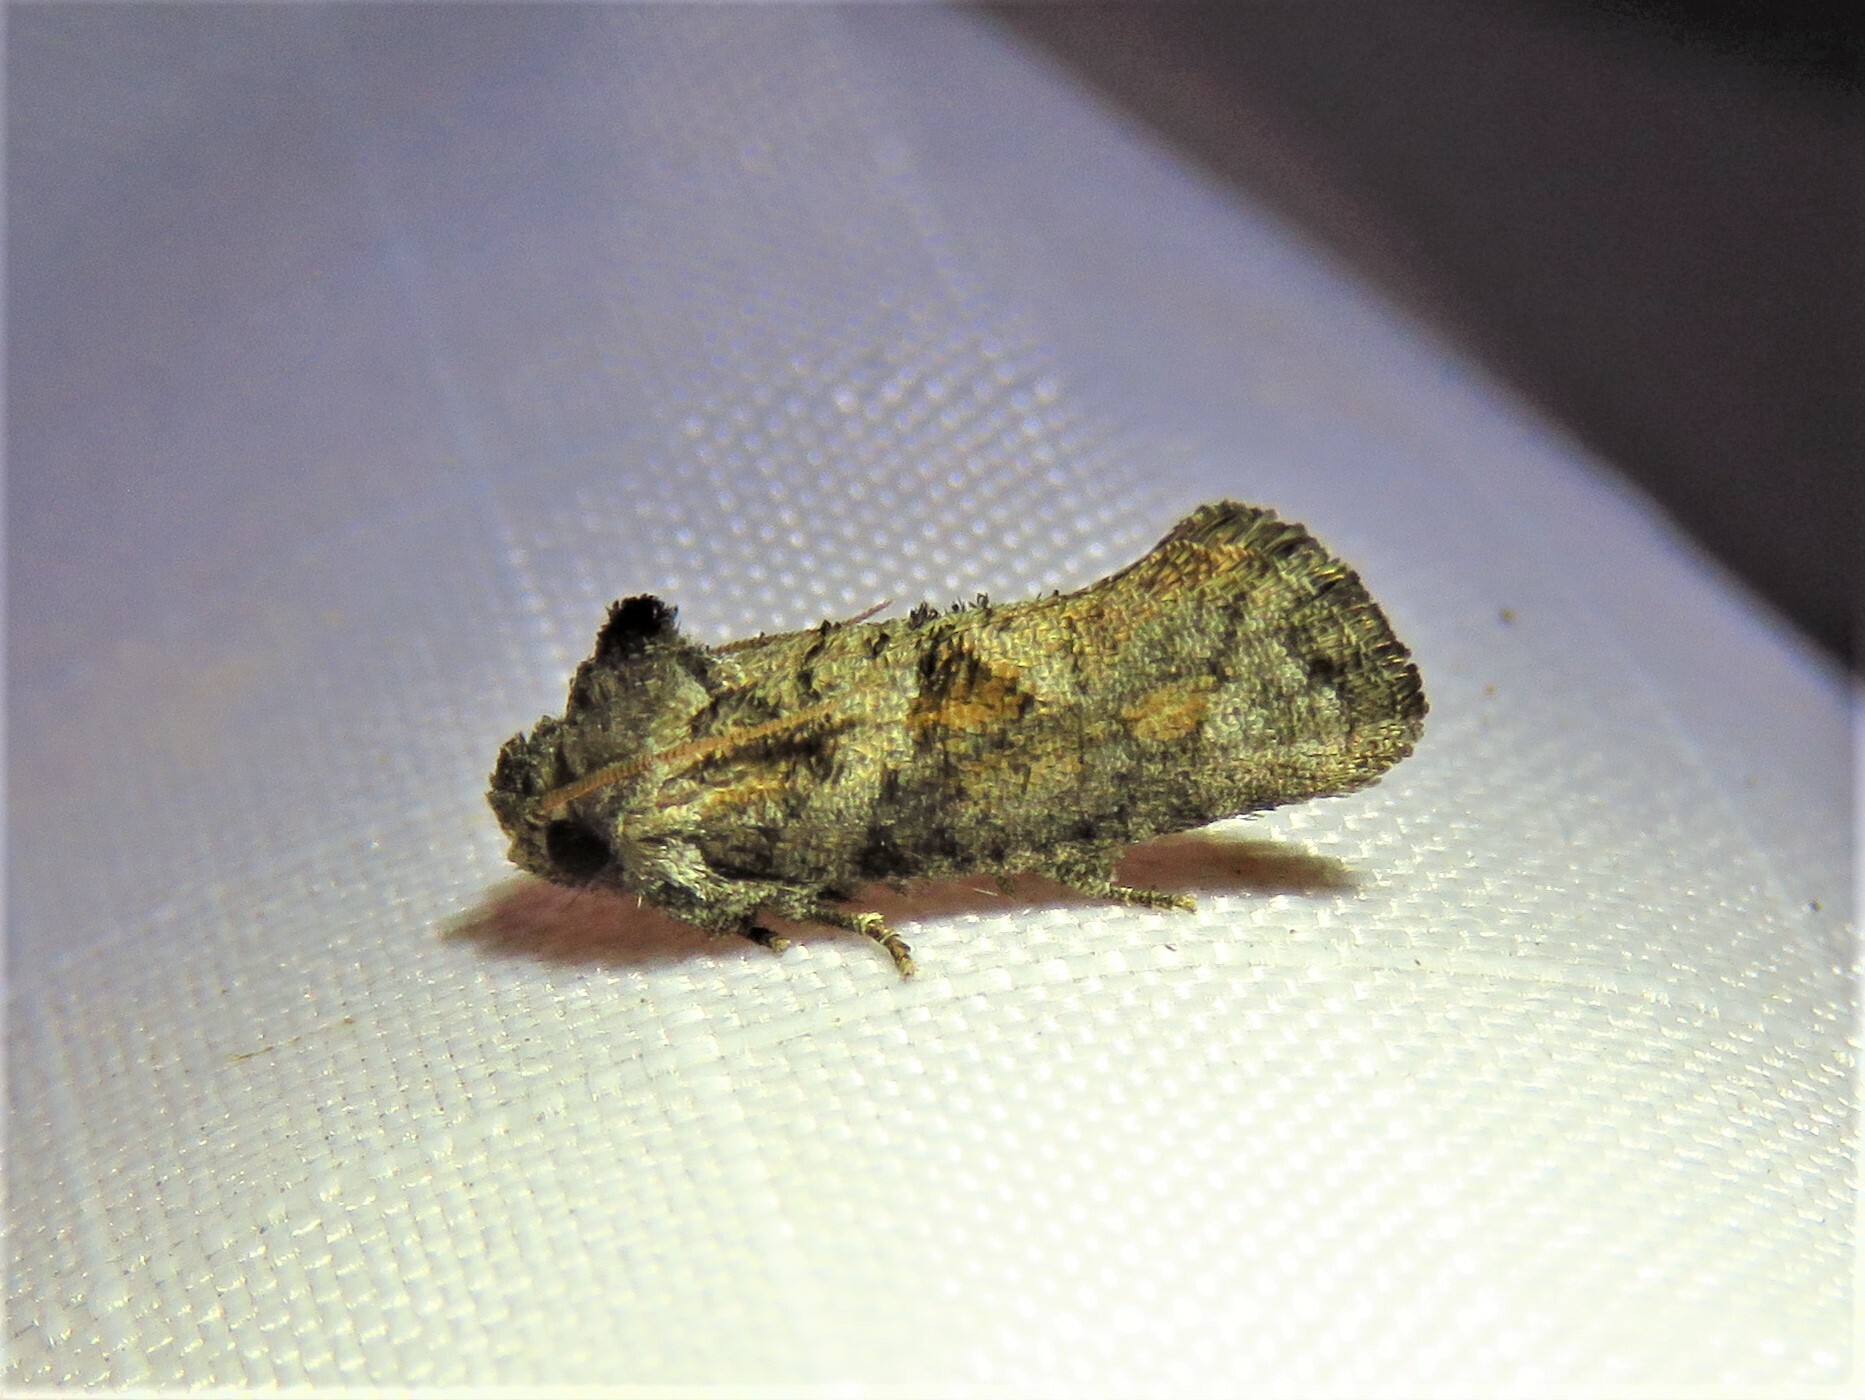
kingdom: Animalia
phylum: Arthropoda
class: Insecta
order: Lepidoptera
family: Tineidae
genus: Acrolophus
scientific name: Acrolophus piger
